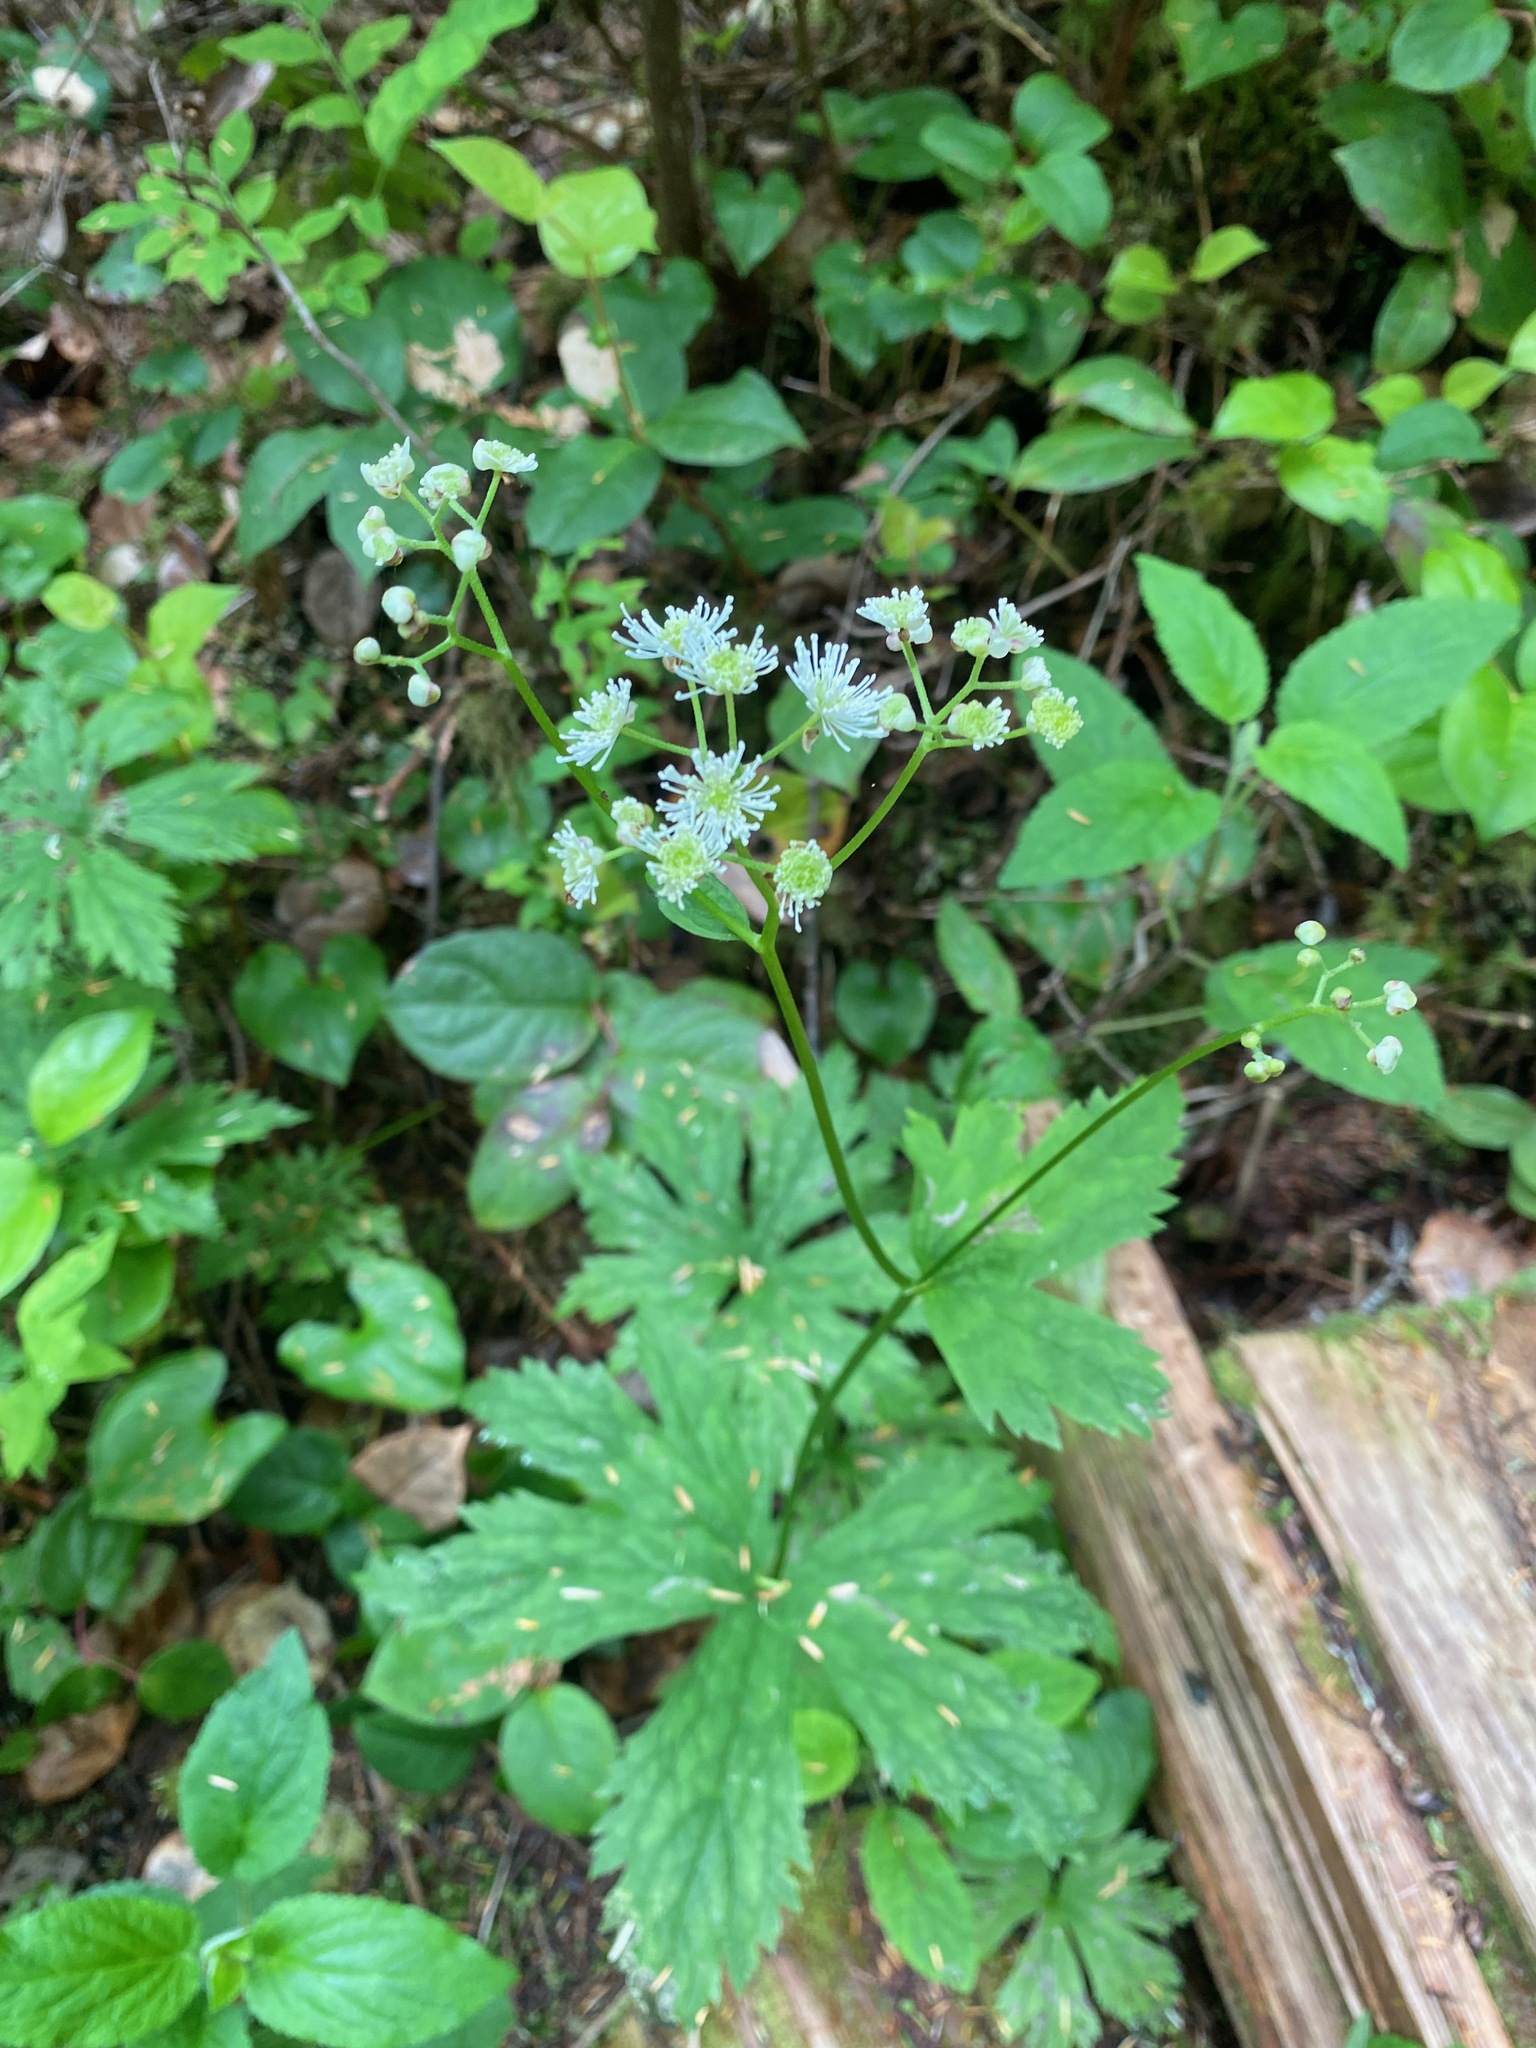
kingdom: Plantae
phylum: Tracheophyta
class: Magnoliopsida
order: Ranunculales
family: Ranunculaceae
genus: Trautvetteria
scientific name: Trautvetteria carolinensis
